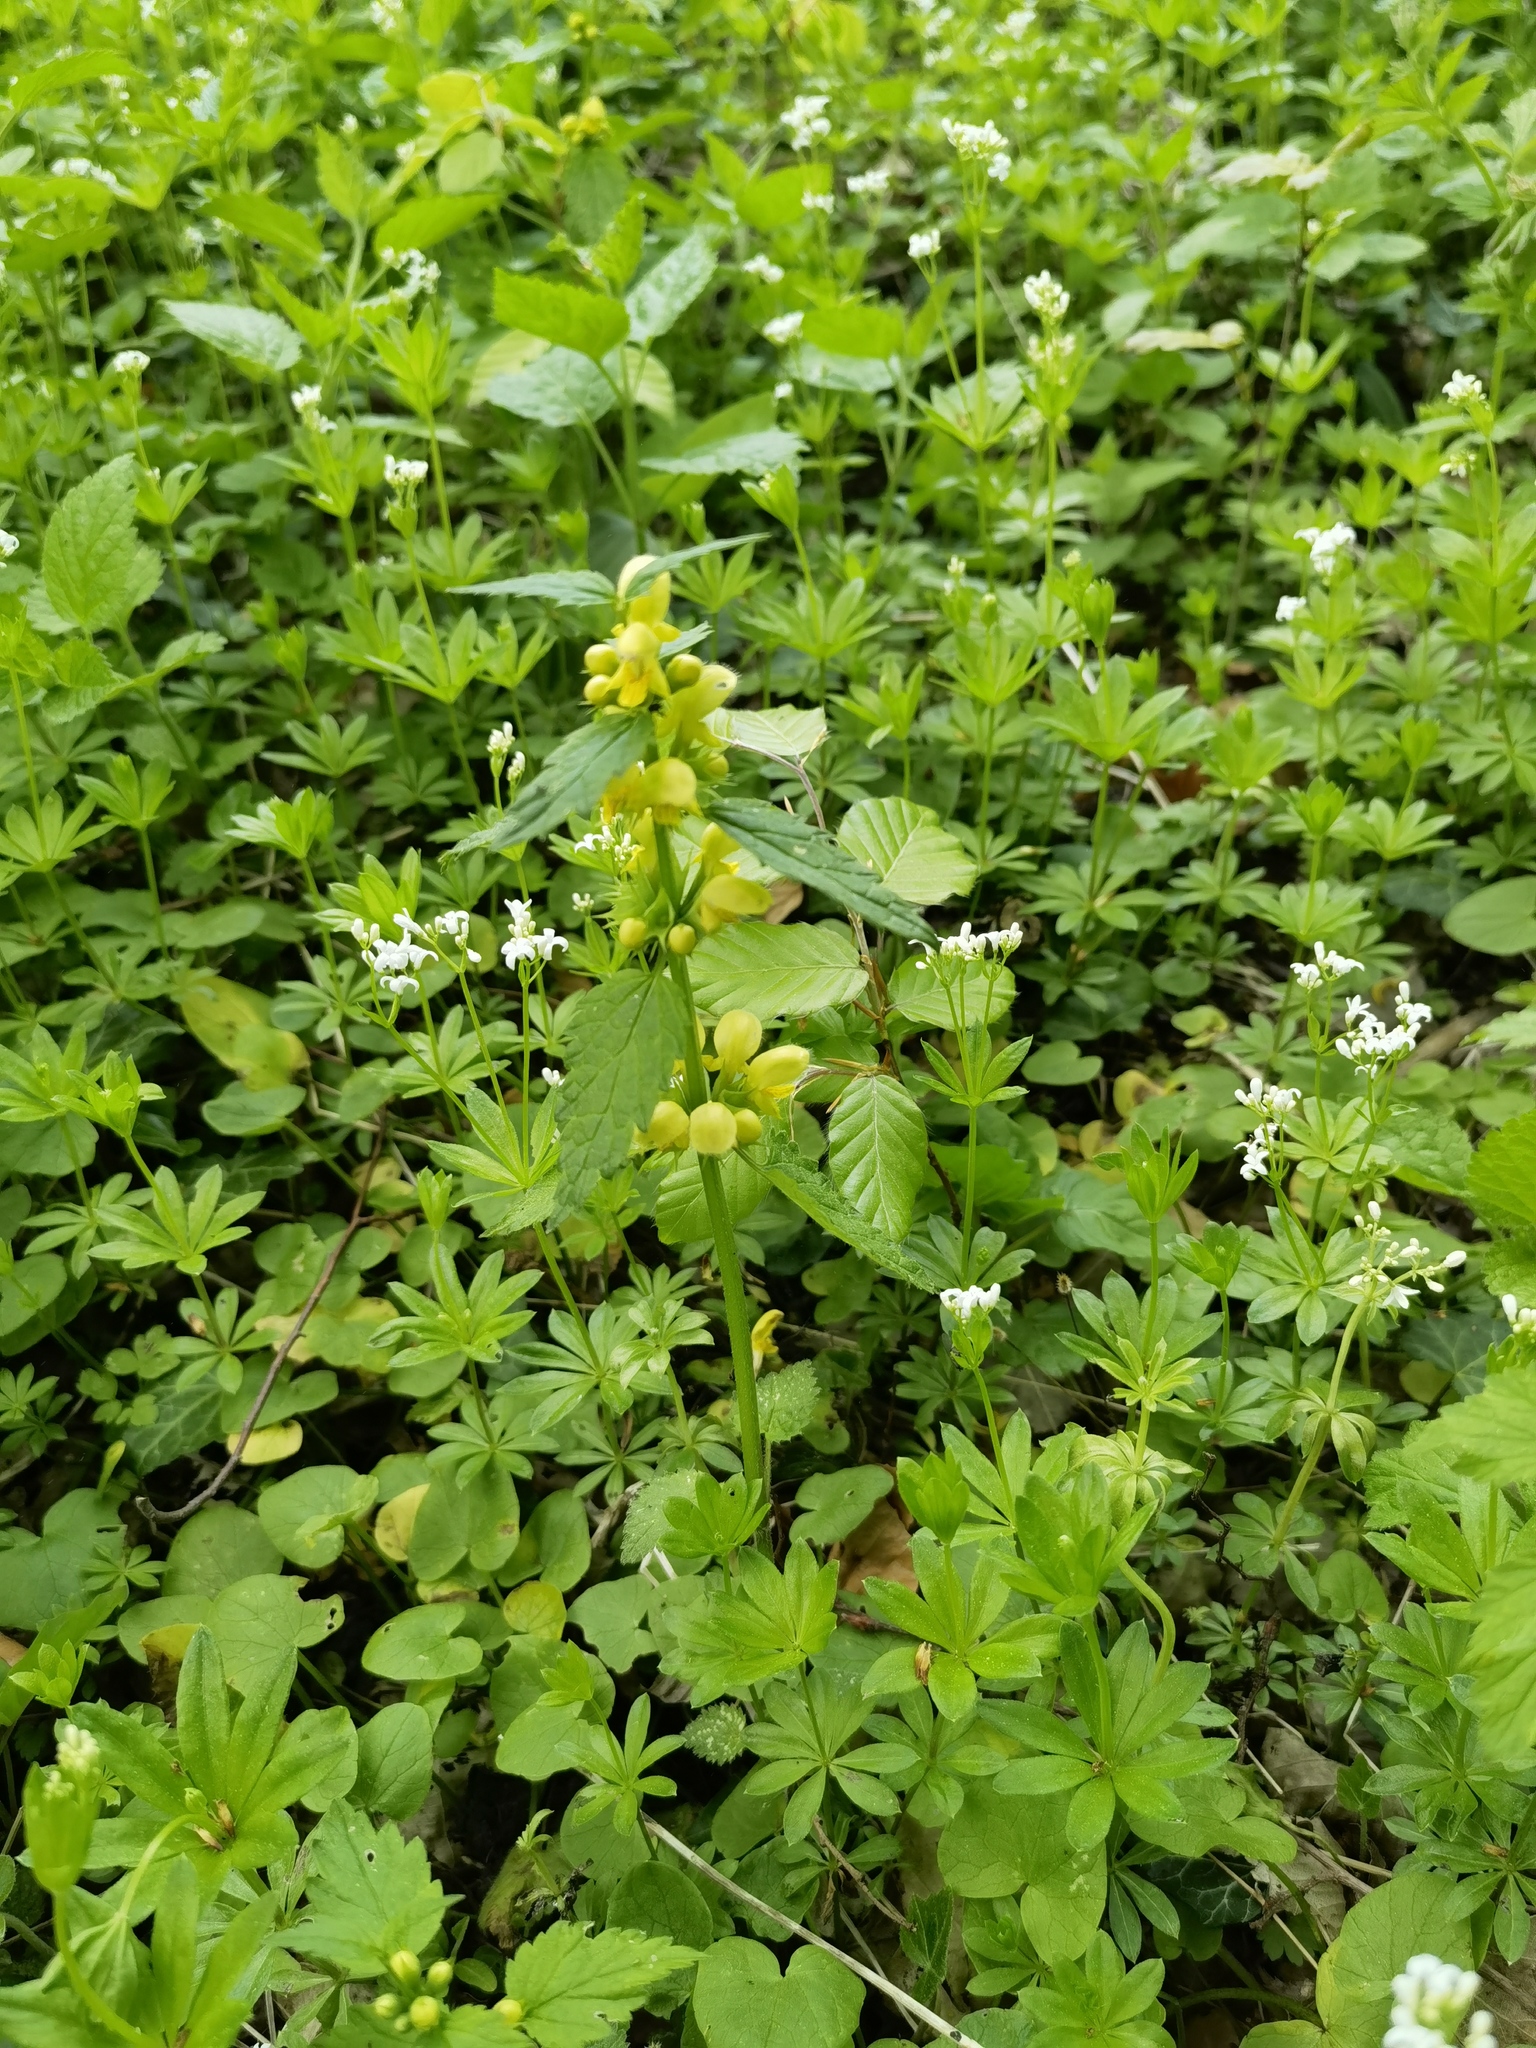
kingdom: Plantae
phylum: Tracheophyta
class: Magnoliopsida
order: Lamiales
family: Lamiaceae
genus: Lamium
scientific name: Lamium galeobdolon
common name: Yellow archangel
